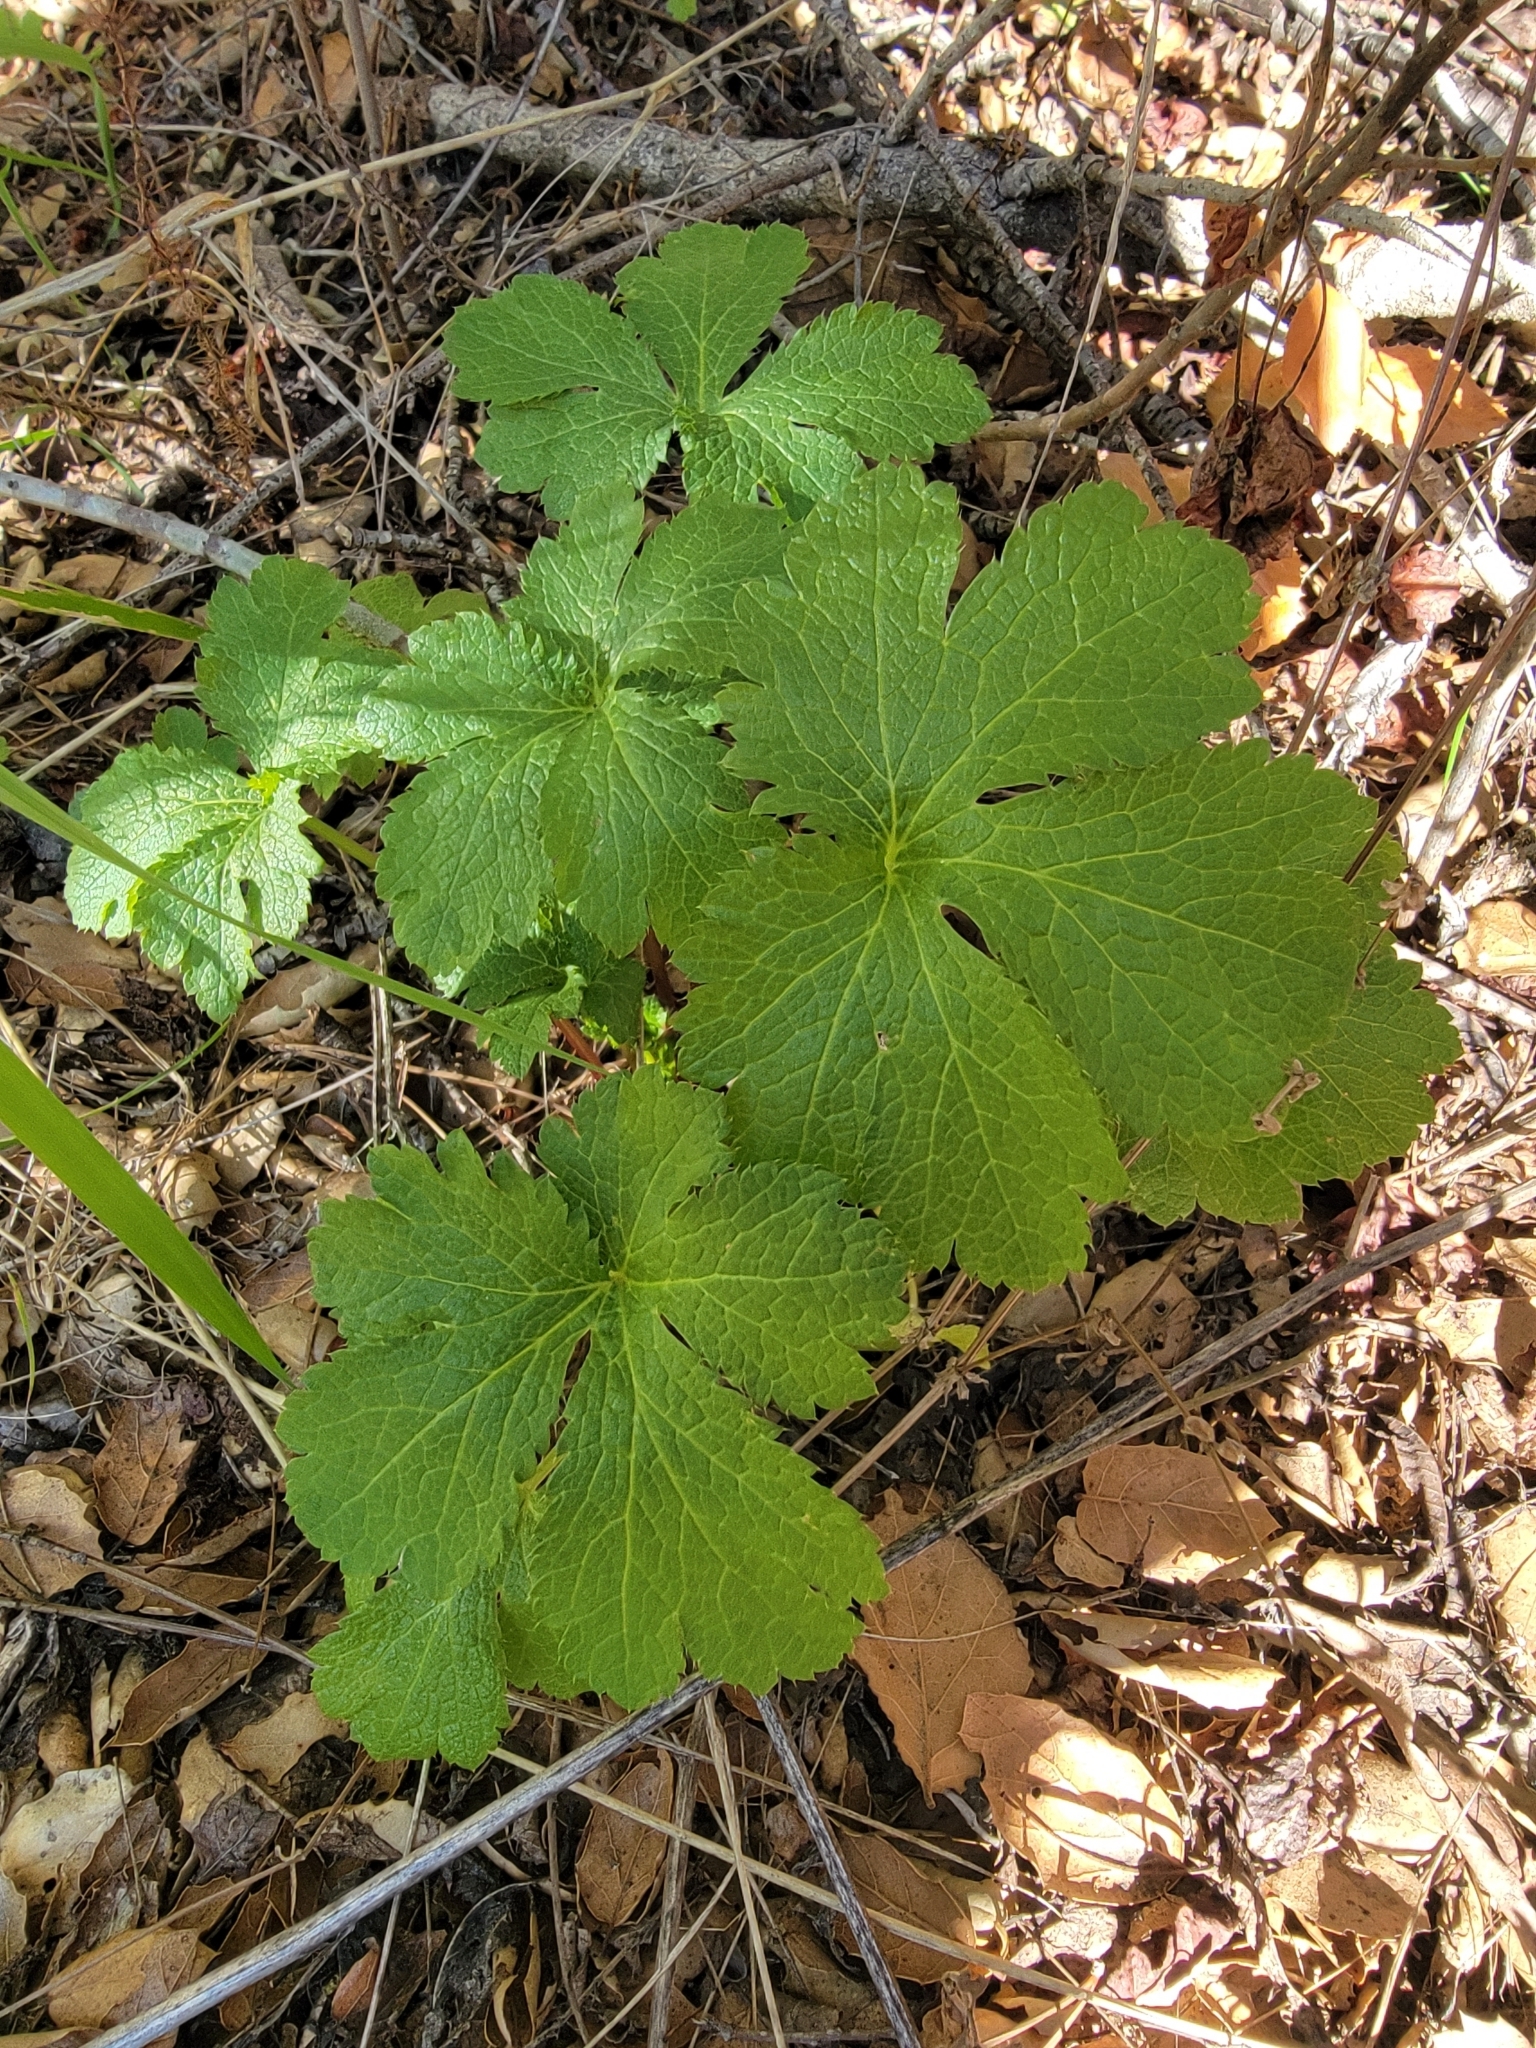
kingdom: Plantae
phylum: Tracheophyta
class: Magnoliopsida
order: Apiales
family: Apiaceae
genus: Sanicula
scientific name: Sanicula crassicaulis
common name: Western snakeroot
